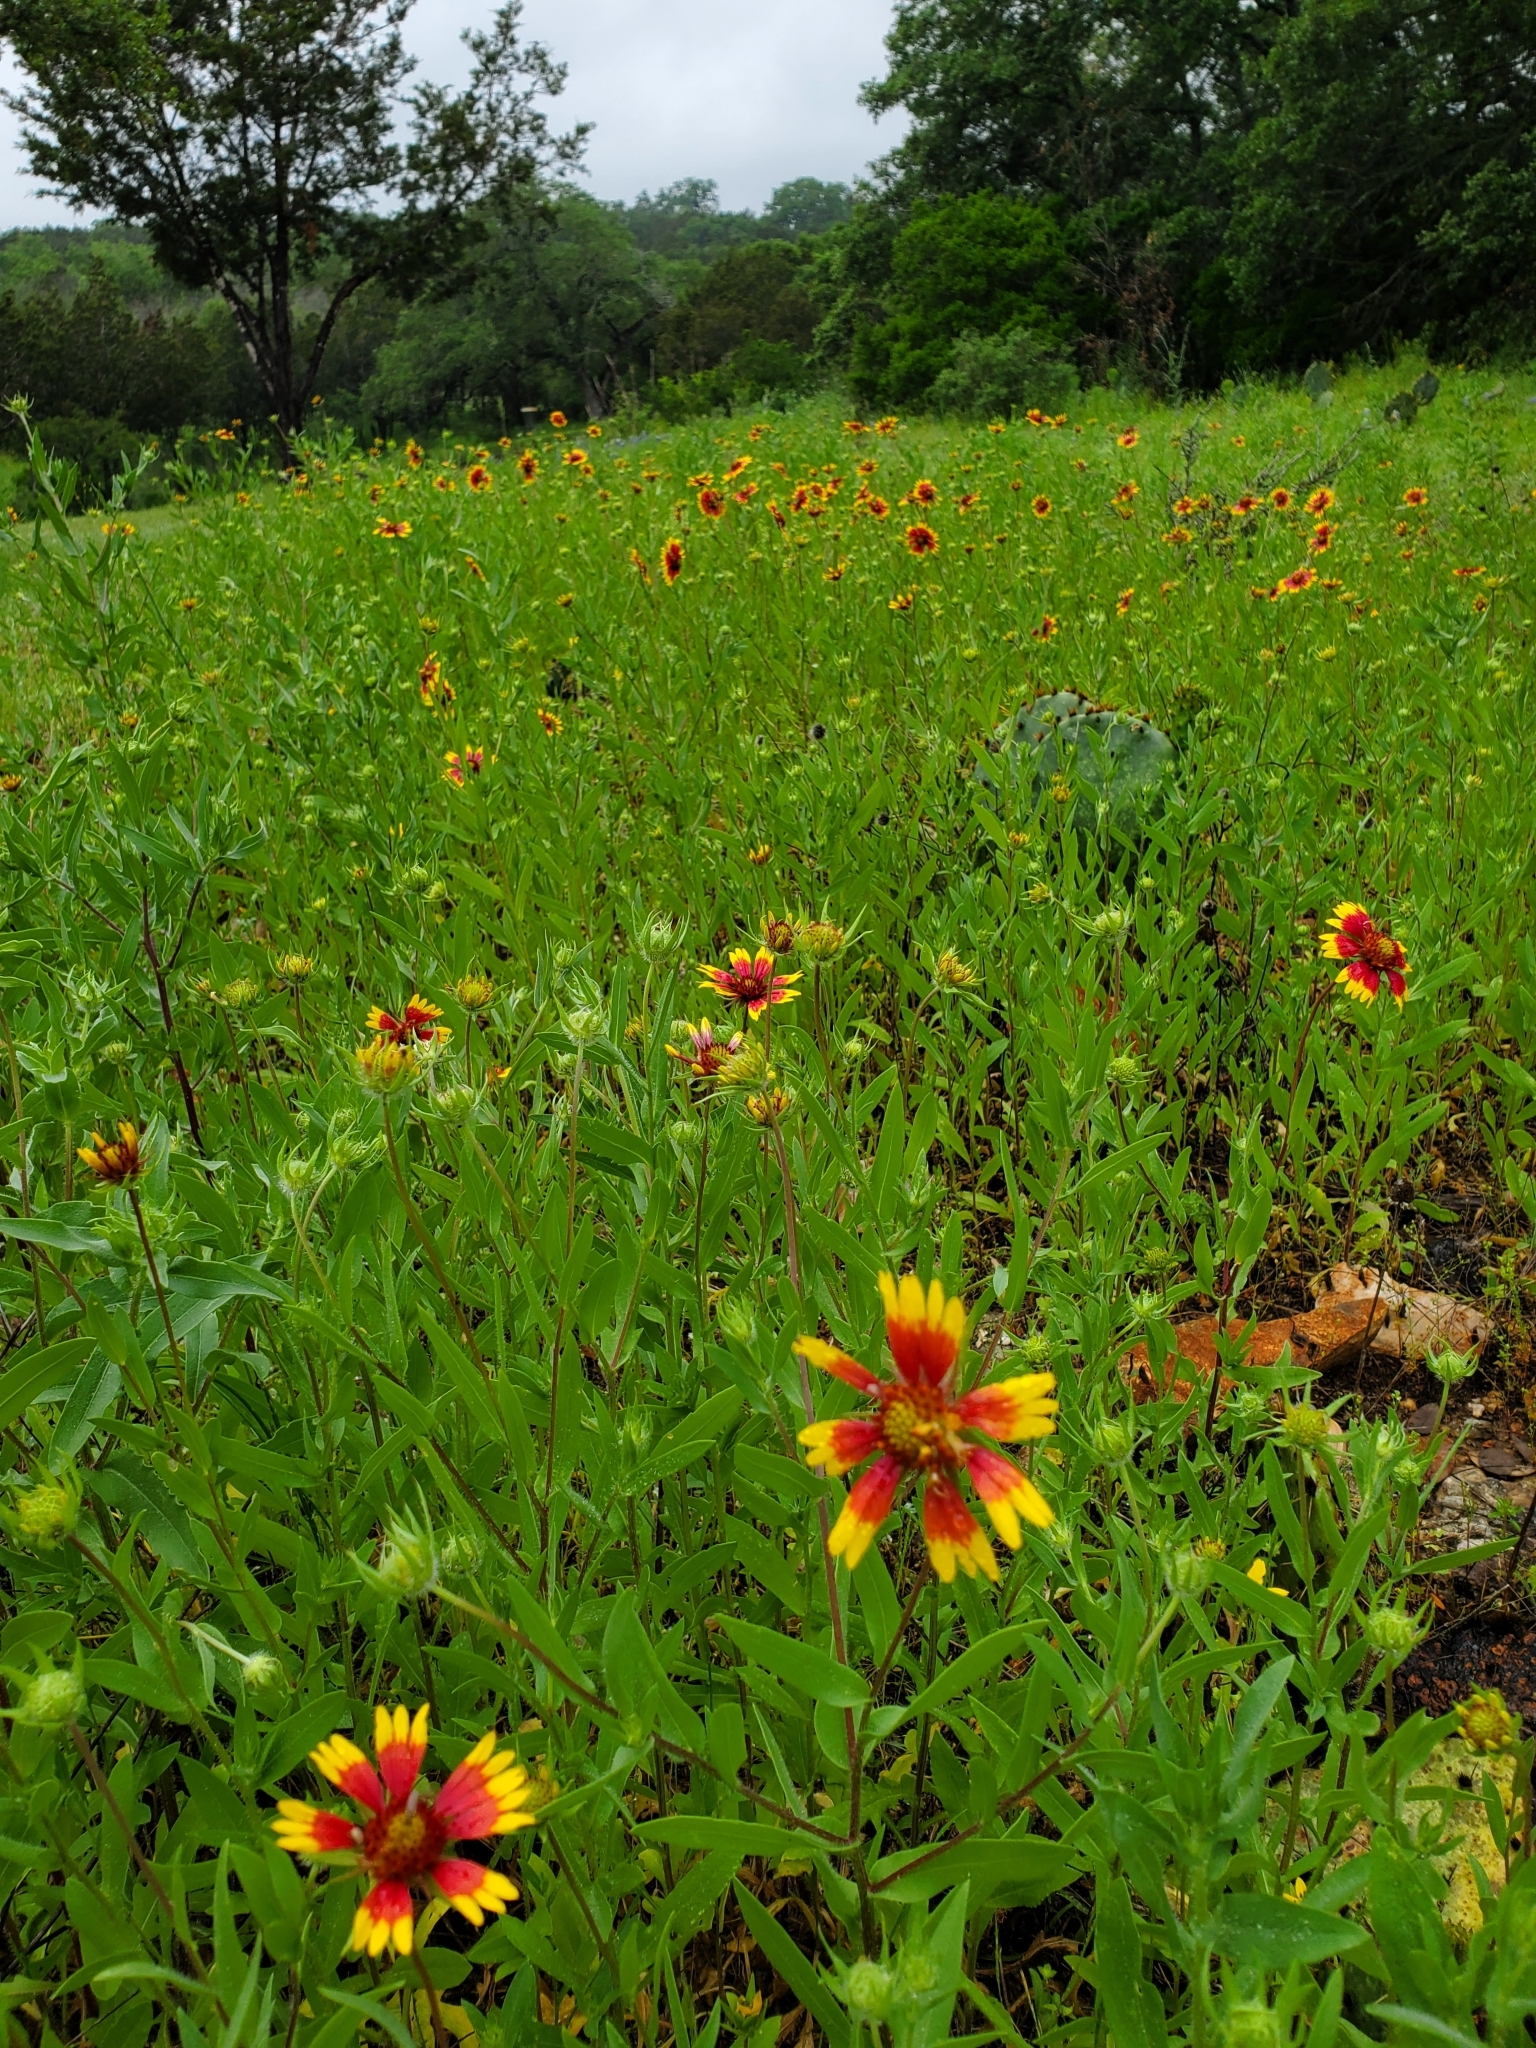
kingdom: Plantae
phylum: Tracheophyta
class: Magnoliopsida
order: Asterales
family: Asteraceae
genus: Gaillardia
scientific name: Gaillardia pulchella
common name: Firewheel
